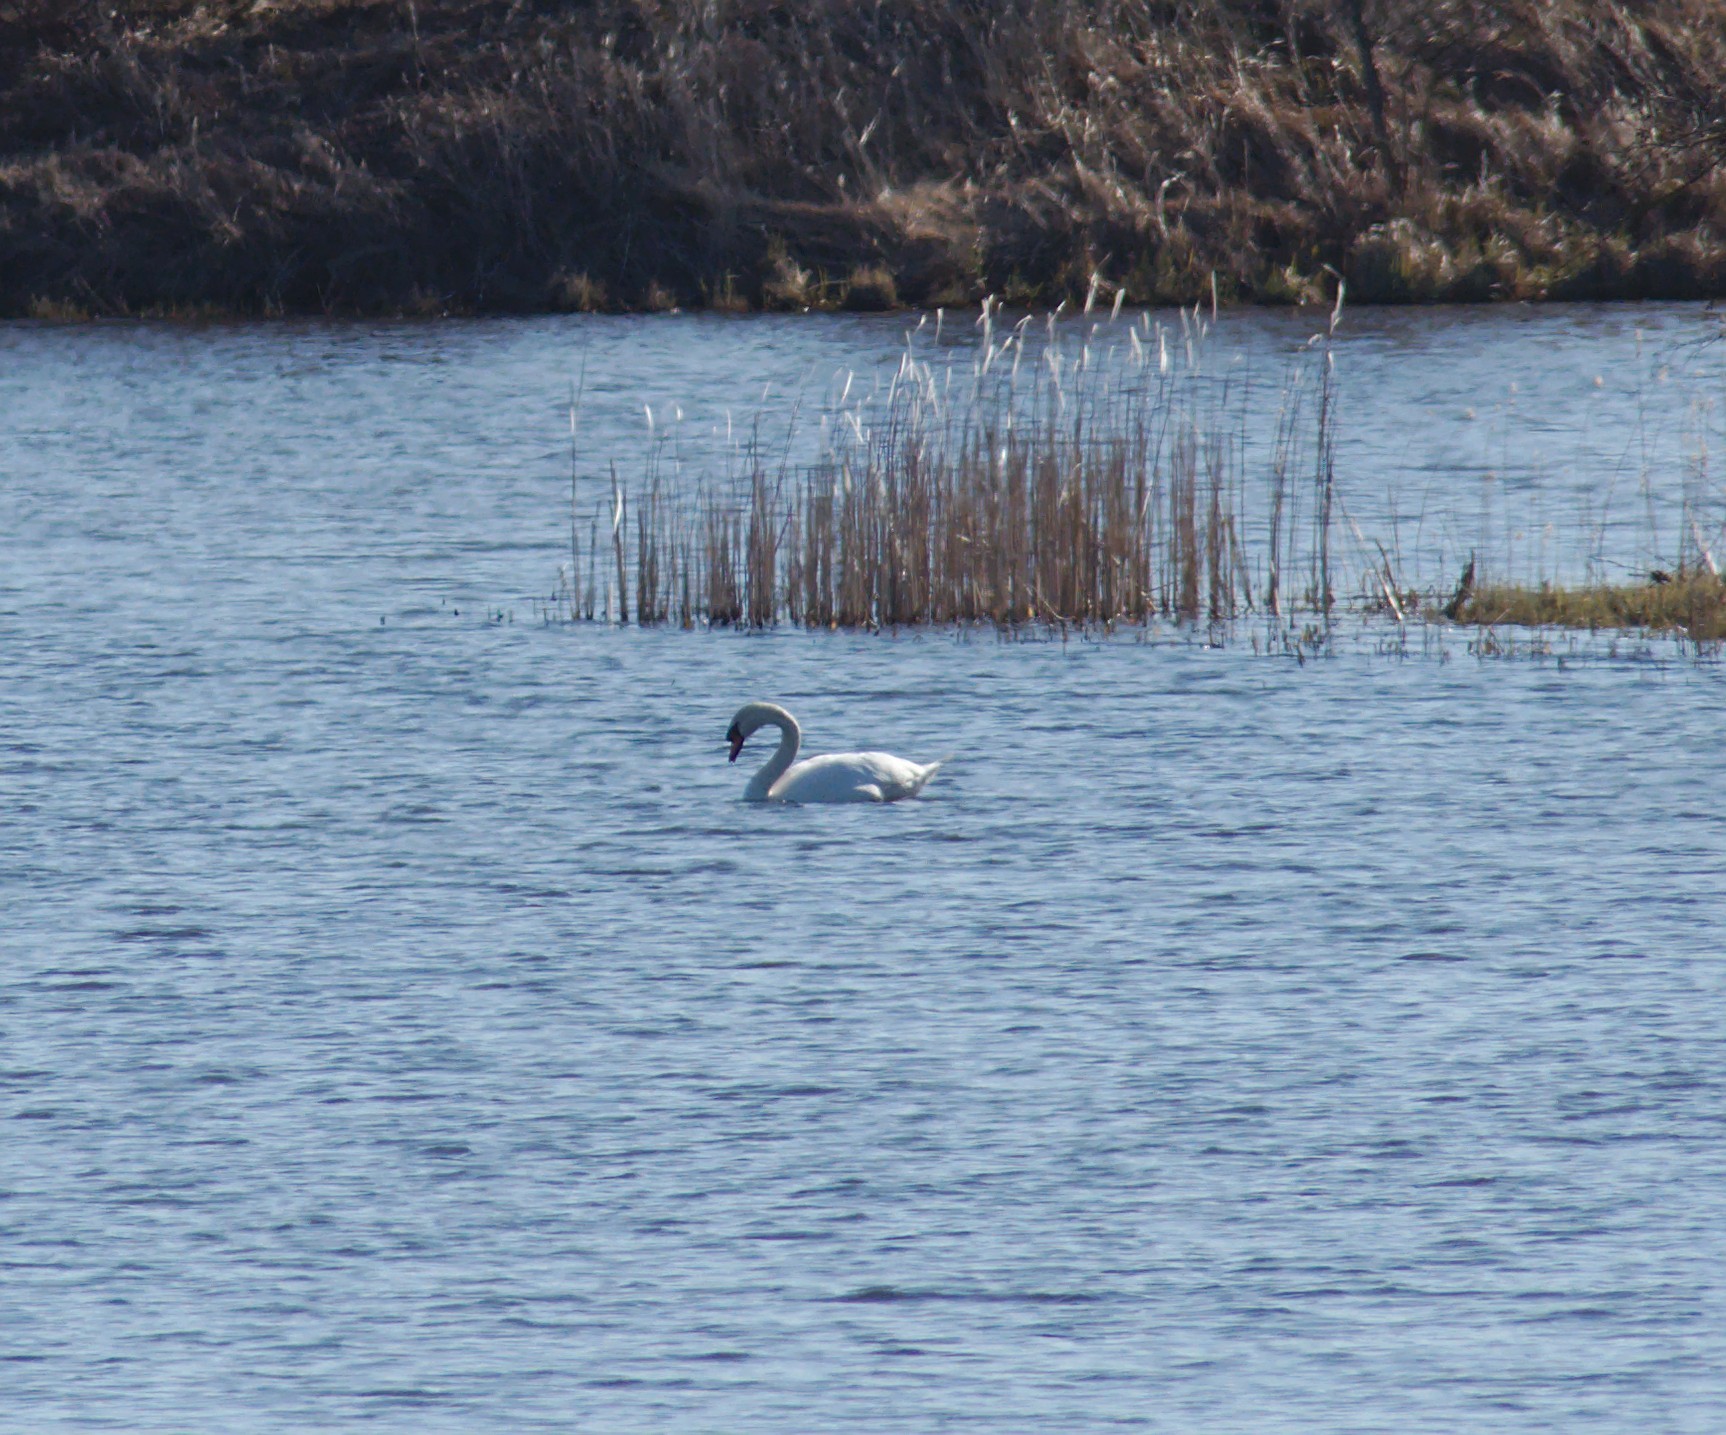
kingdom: Animalia
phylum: Chordata
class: Aves
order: Anseriformes
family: Anatidae
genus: Cygnus
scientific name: Cygnus olor
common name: Mute swan
